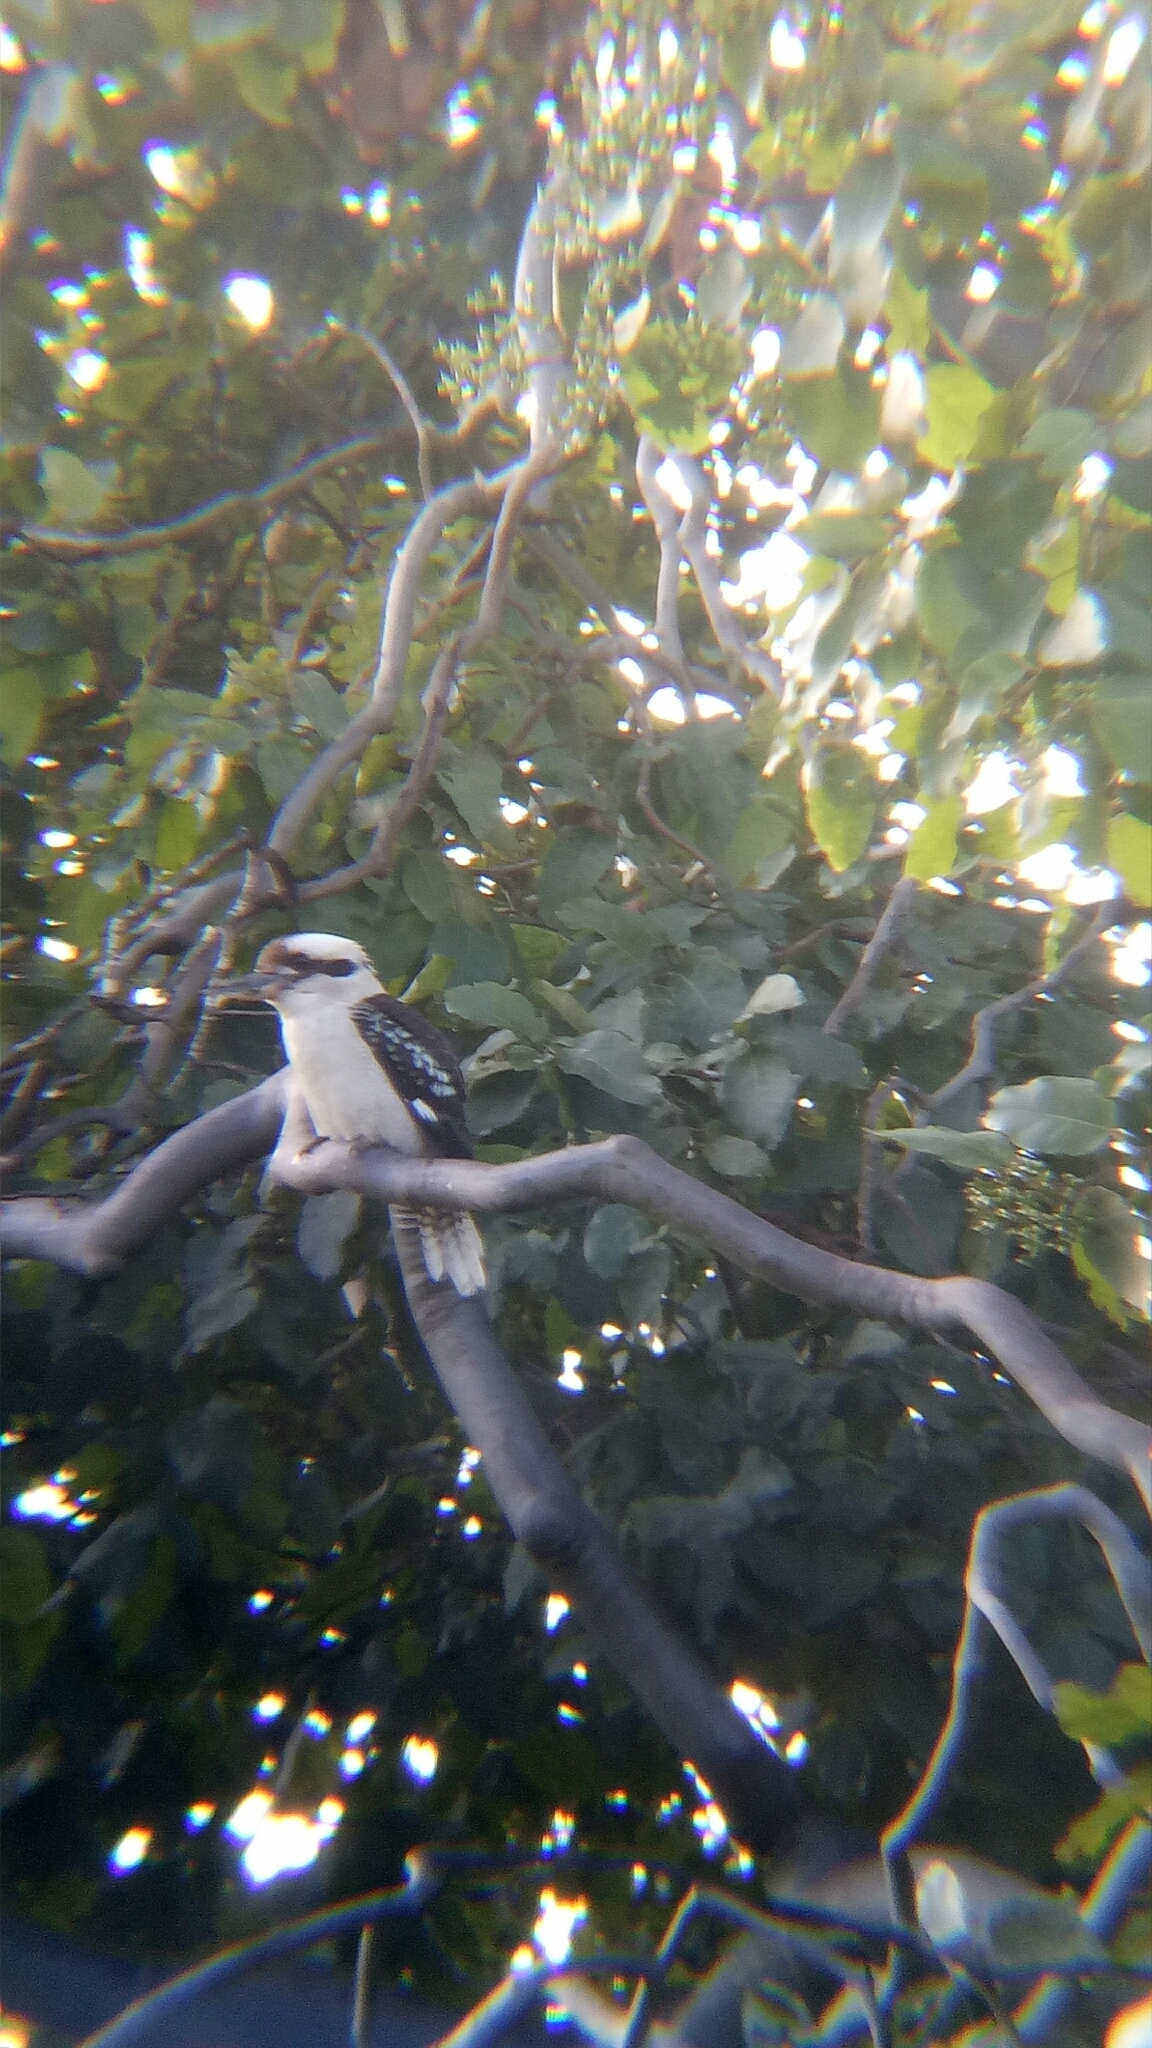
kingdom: Animalia
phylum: Chordata
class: Aves
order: Coraciiformes
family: Alcedinidae
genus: Dacelo
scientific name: Dacelo novaeguineae
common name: Laughing kookaburra
